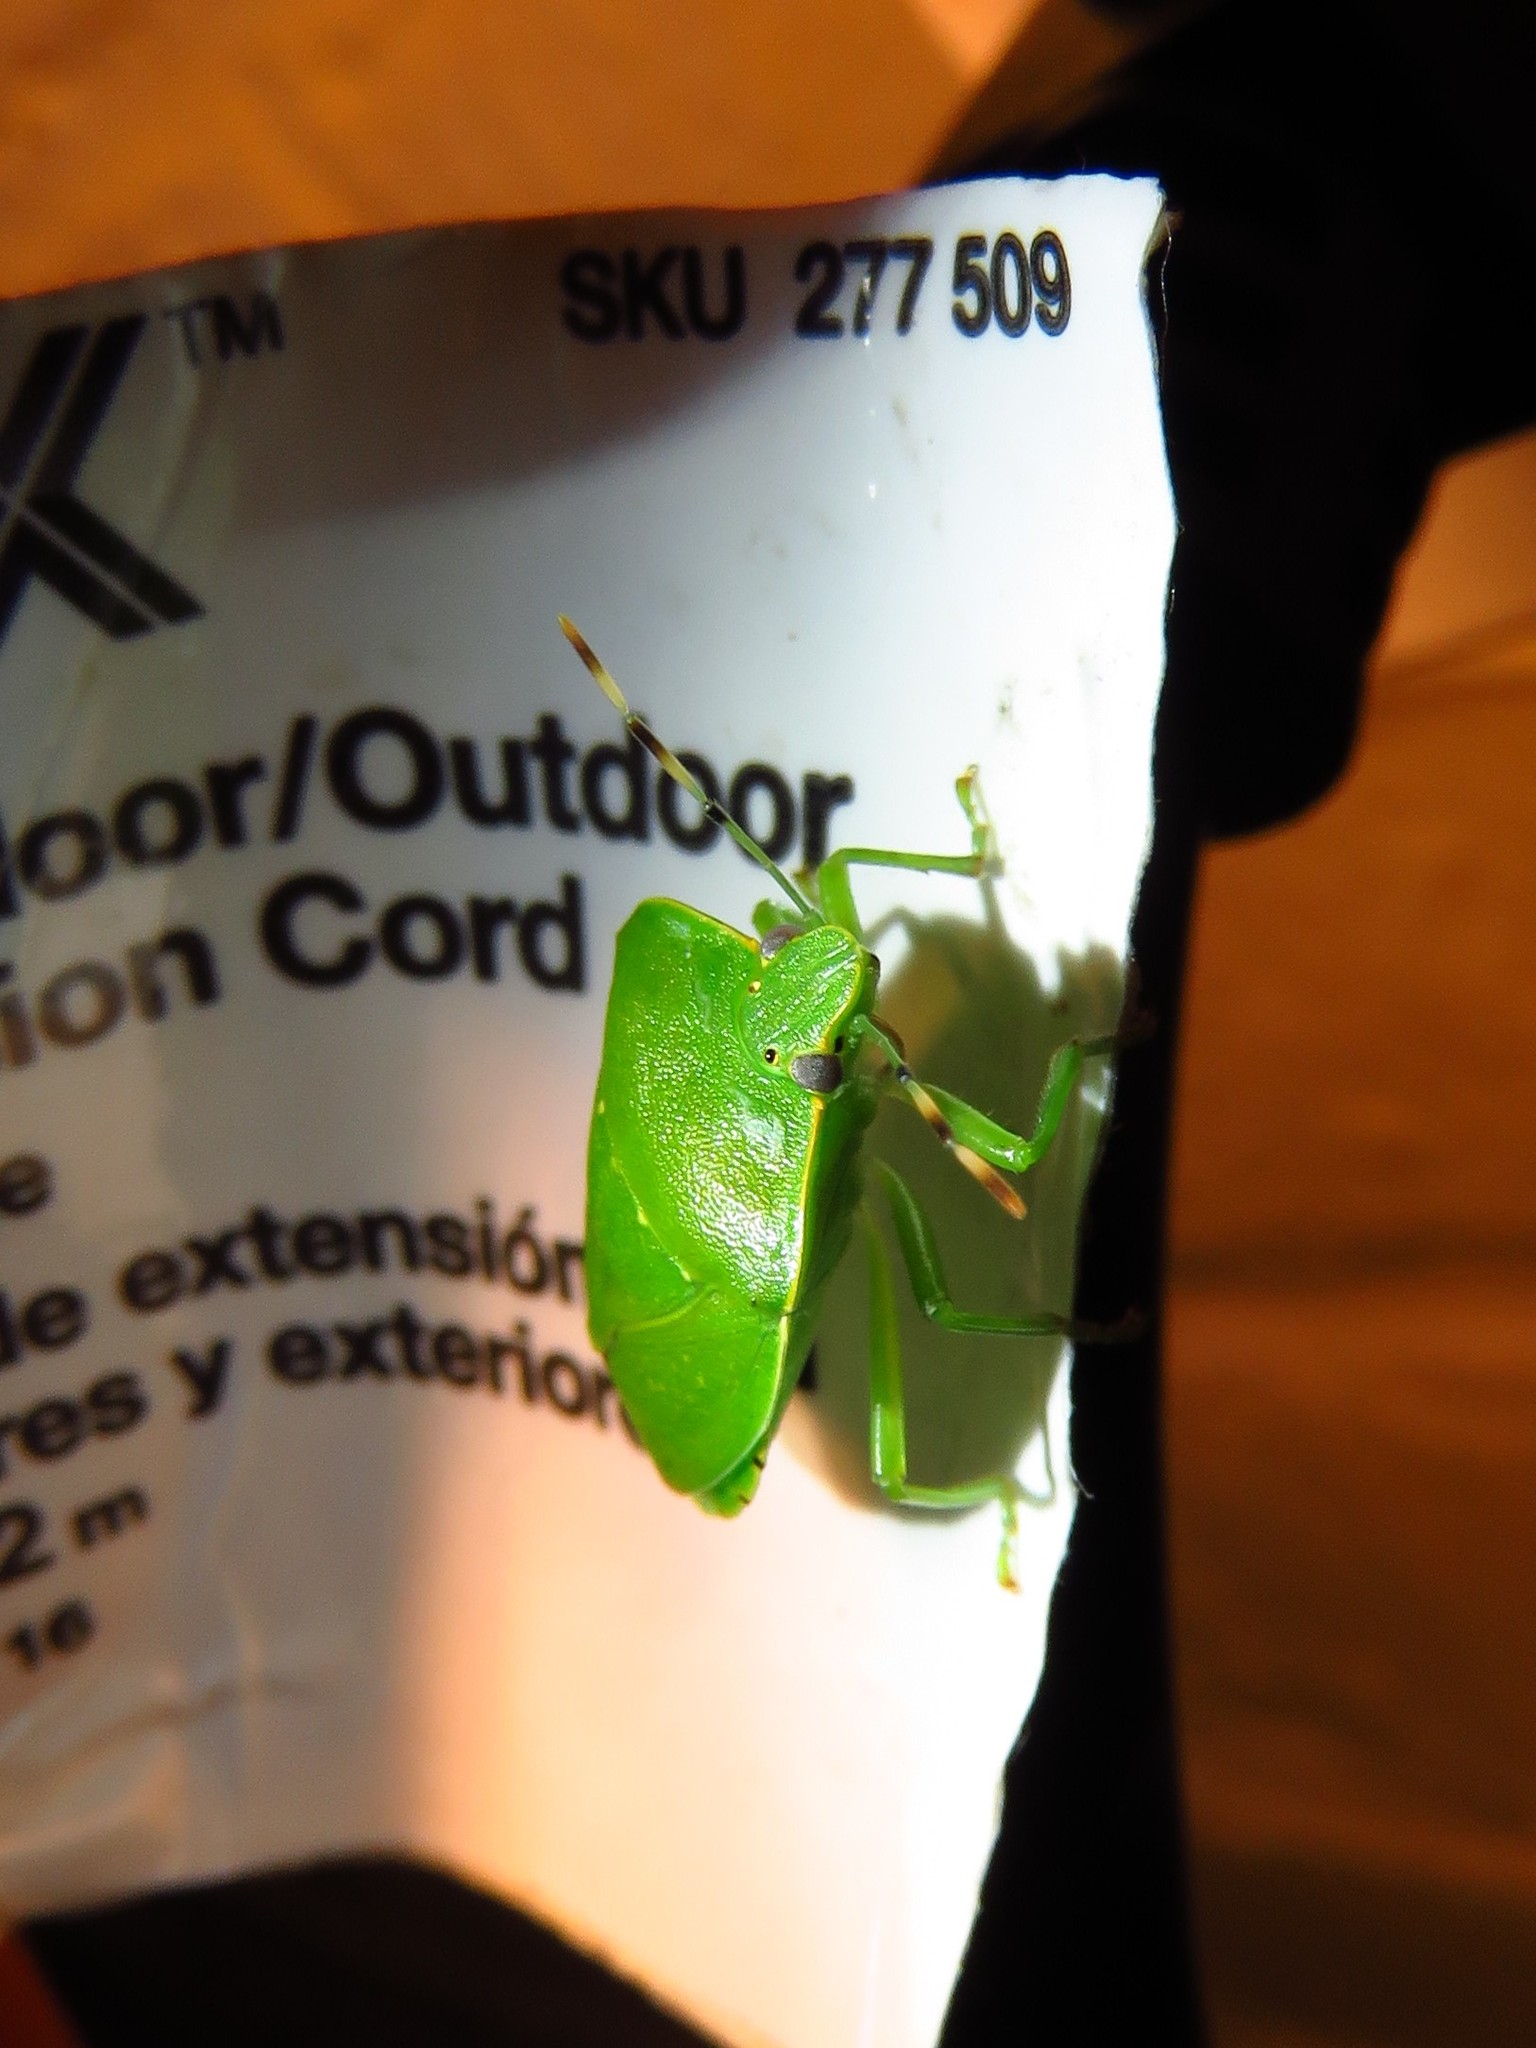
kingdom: Animalia
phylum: Arthropoda
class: Insecta
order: Hemiptera
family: Pentatomidae
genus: Chinavia
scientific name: Chinavia hilaris
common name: Green stink bug
